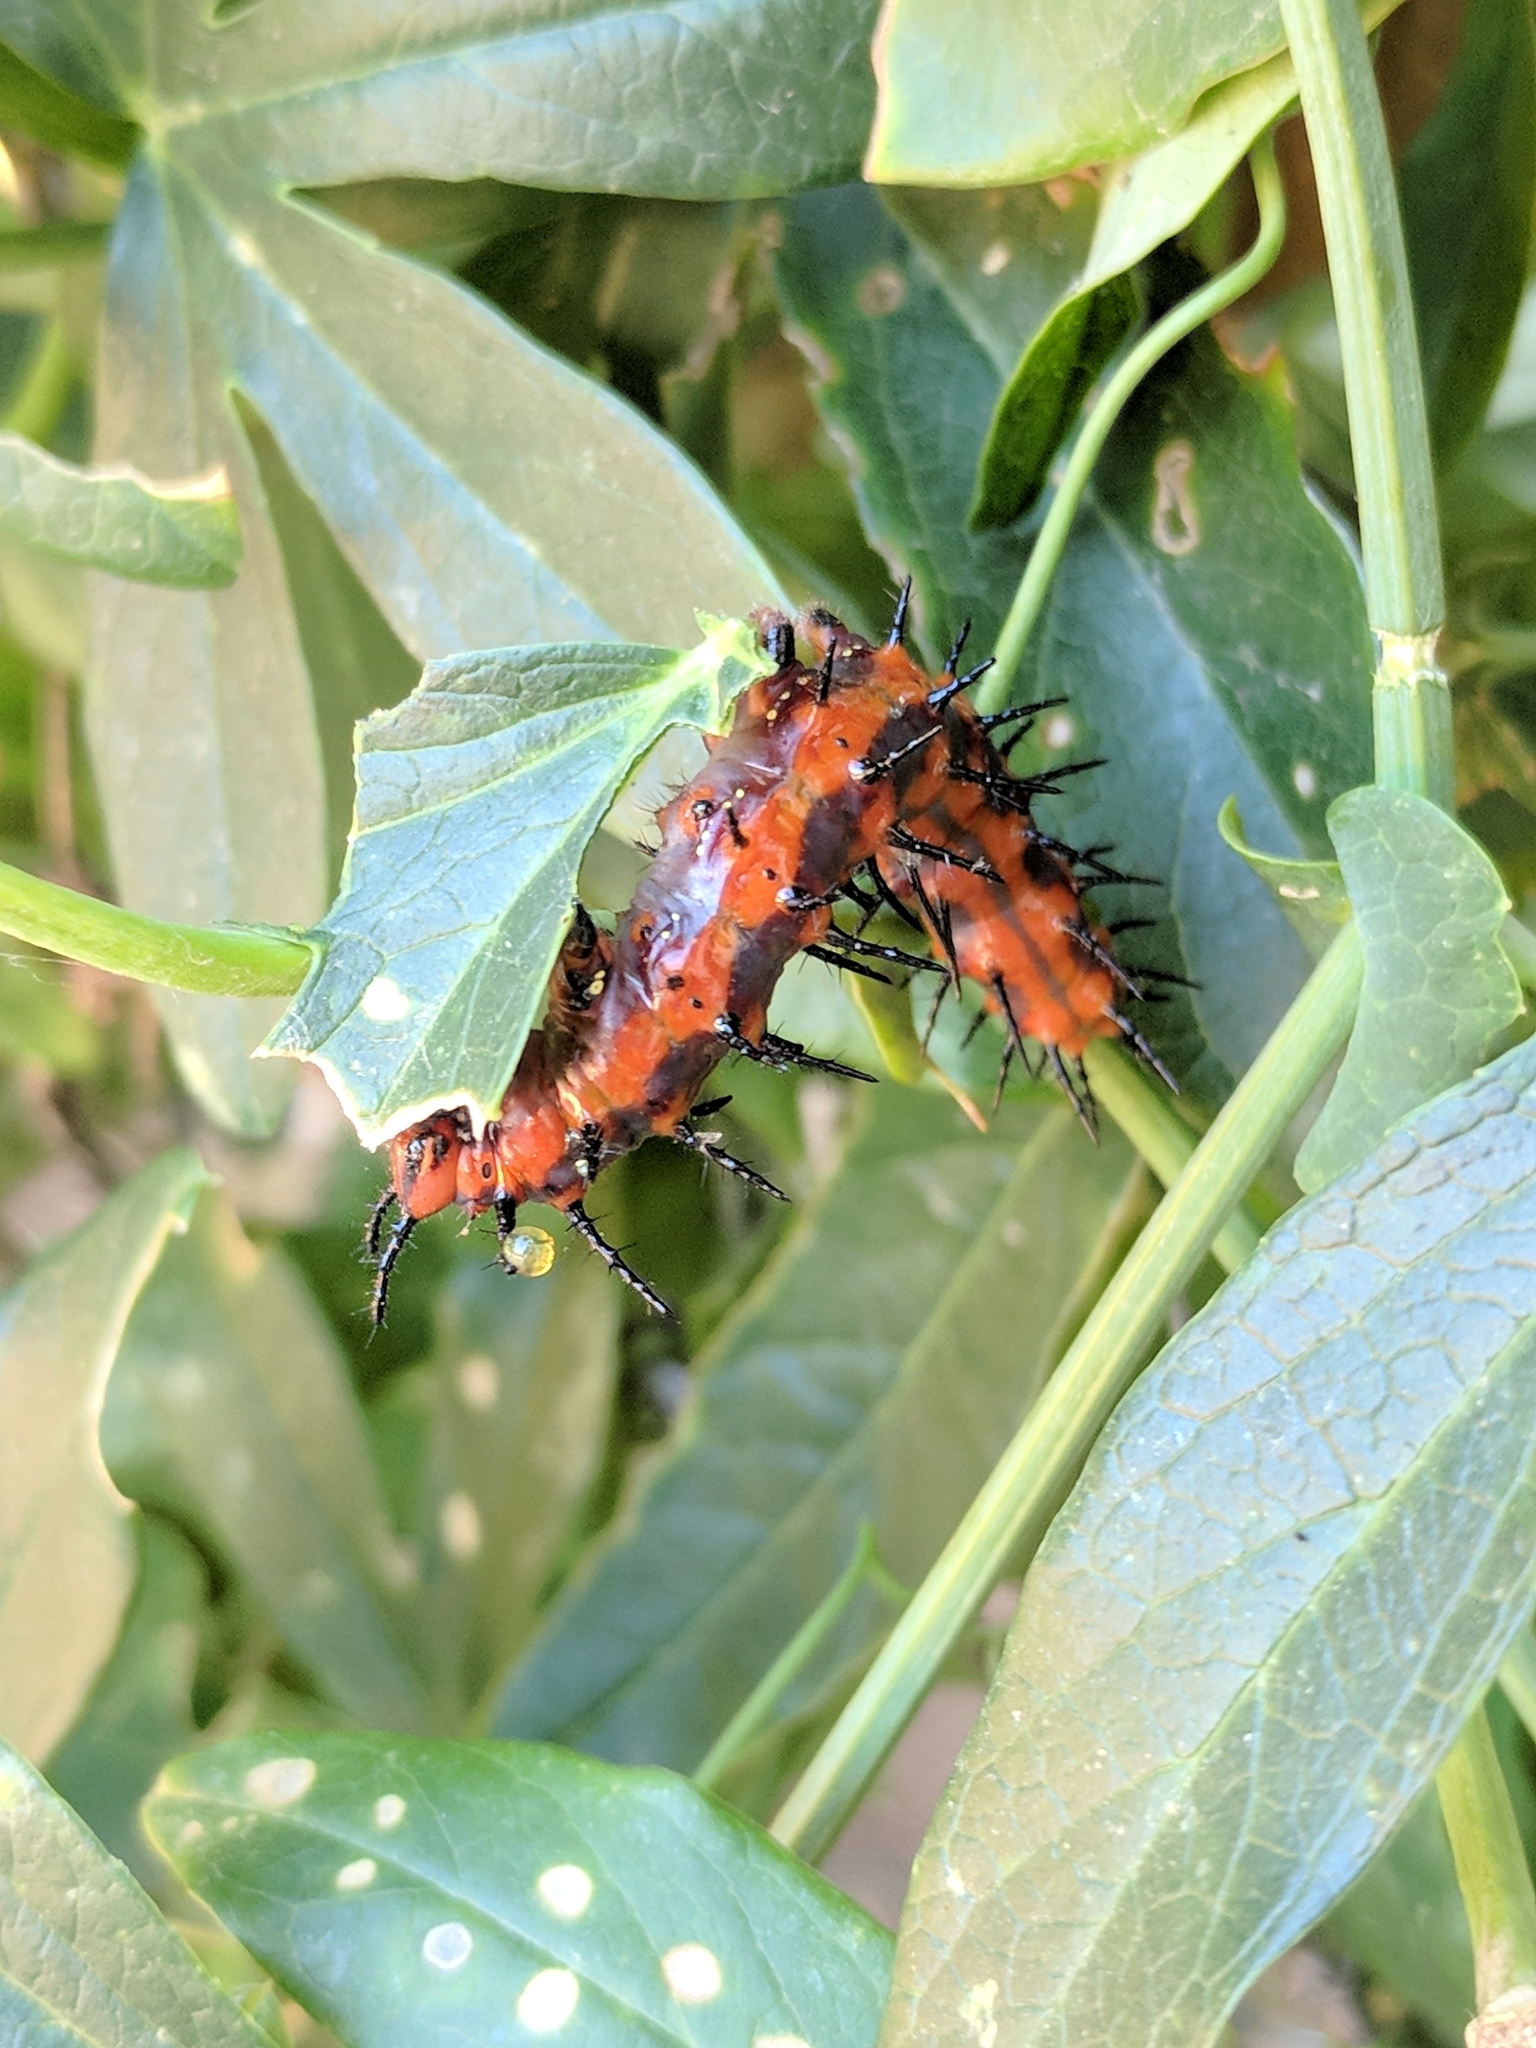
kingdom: Animalia
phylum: Arthropoda
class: Insecta
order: Lepidoptera
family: Nymphalidae
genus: Dione
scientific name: Dione vanillae
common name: Gulf fritillary
